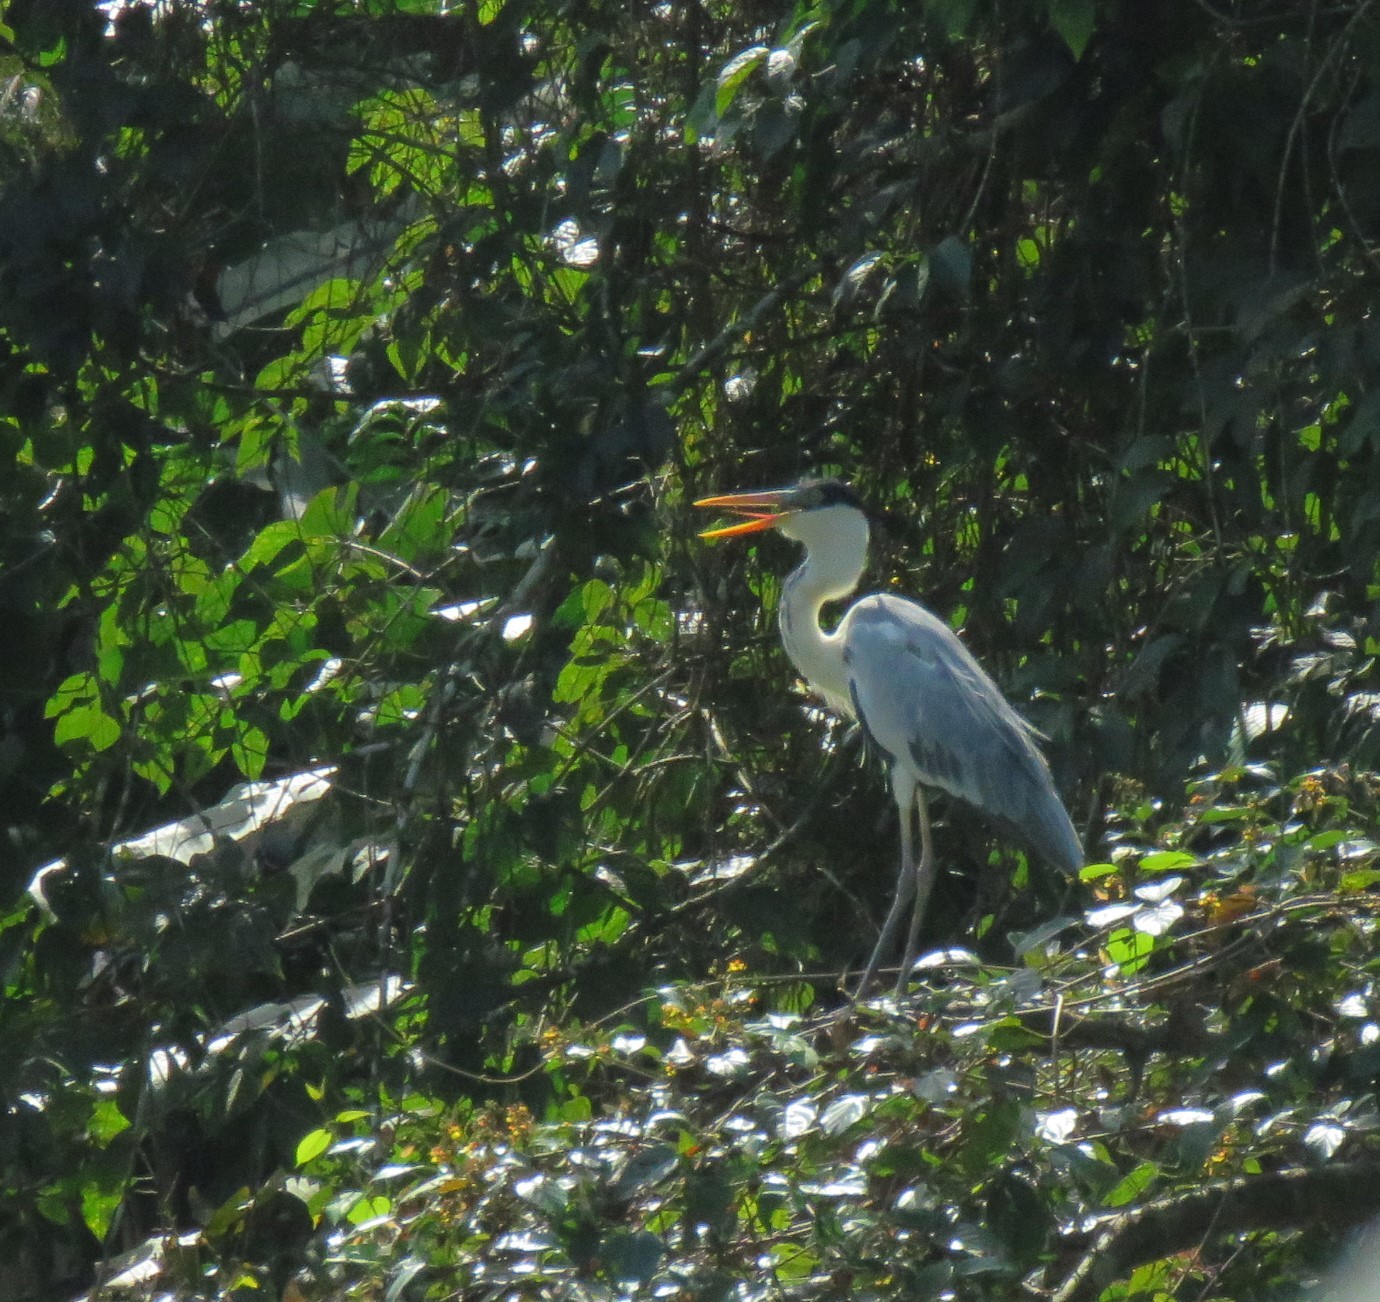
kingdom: Animalia
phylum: Chordata
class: Aves
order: Pelecaniformes
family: Ardeidae
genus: Ardea
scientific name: Ardea cocoi
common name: Cocoi heron
